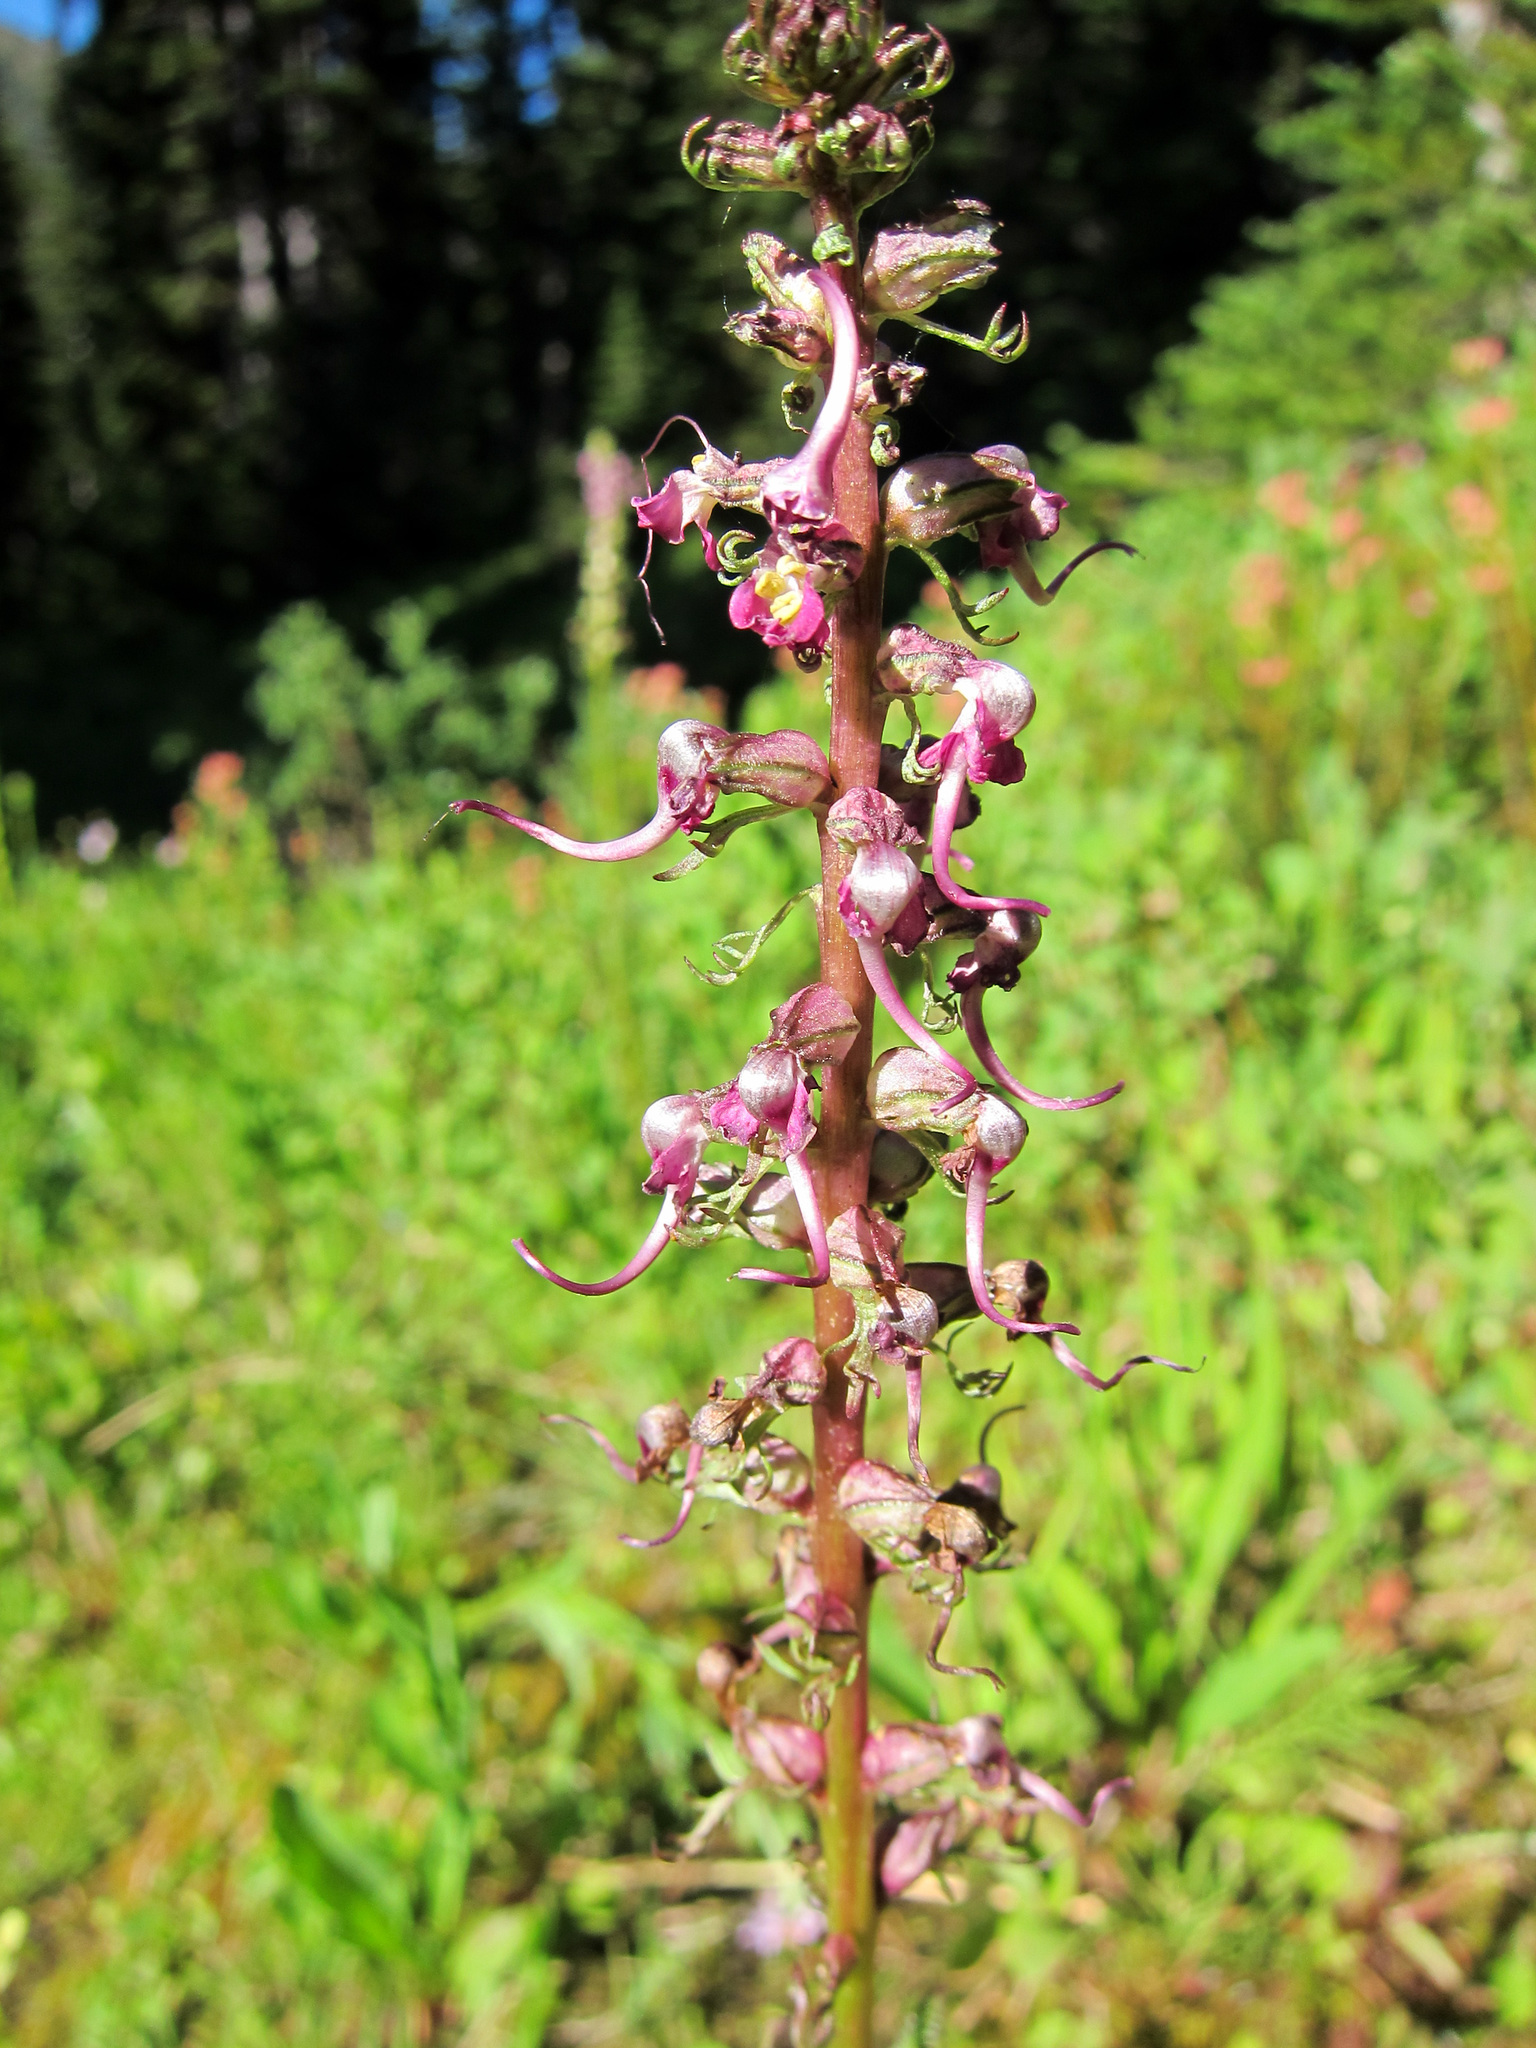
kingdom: Plantae
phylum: Tracheophyta
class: Magnoliopsida
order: Lamiales
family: Orobanchaceae
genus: Pedicularis
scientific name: Pedicularis groenlandica
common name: Elephant's-head
